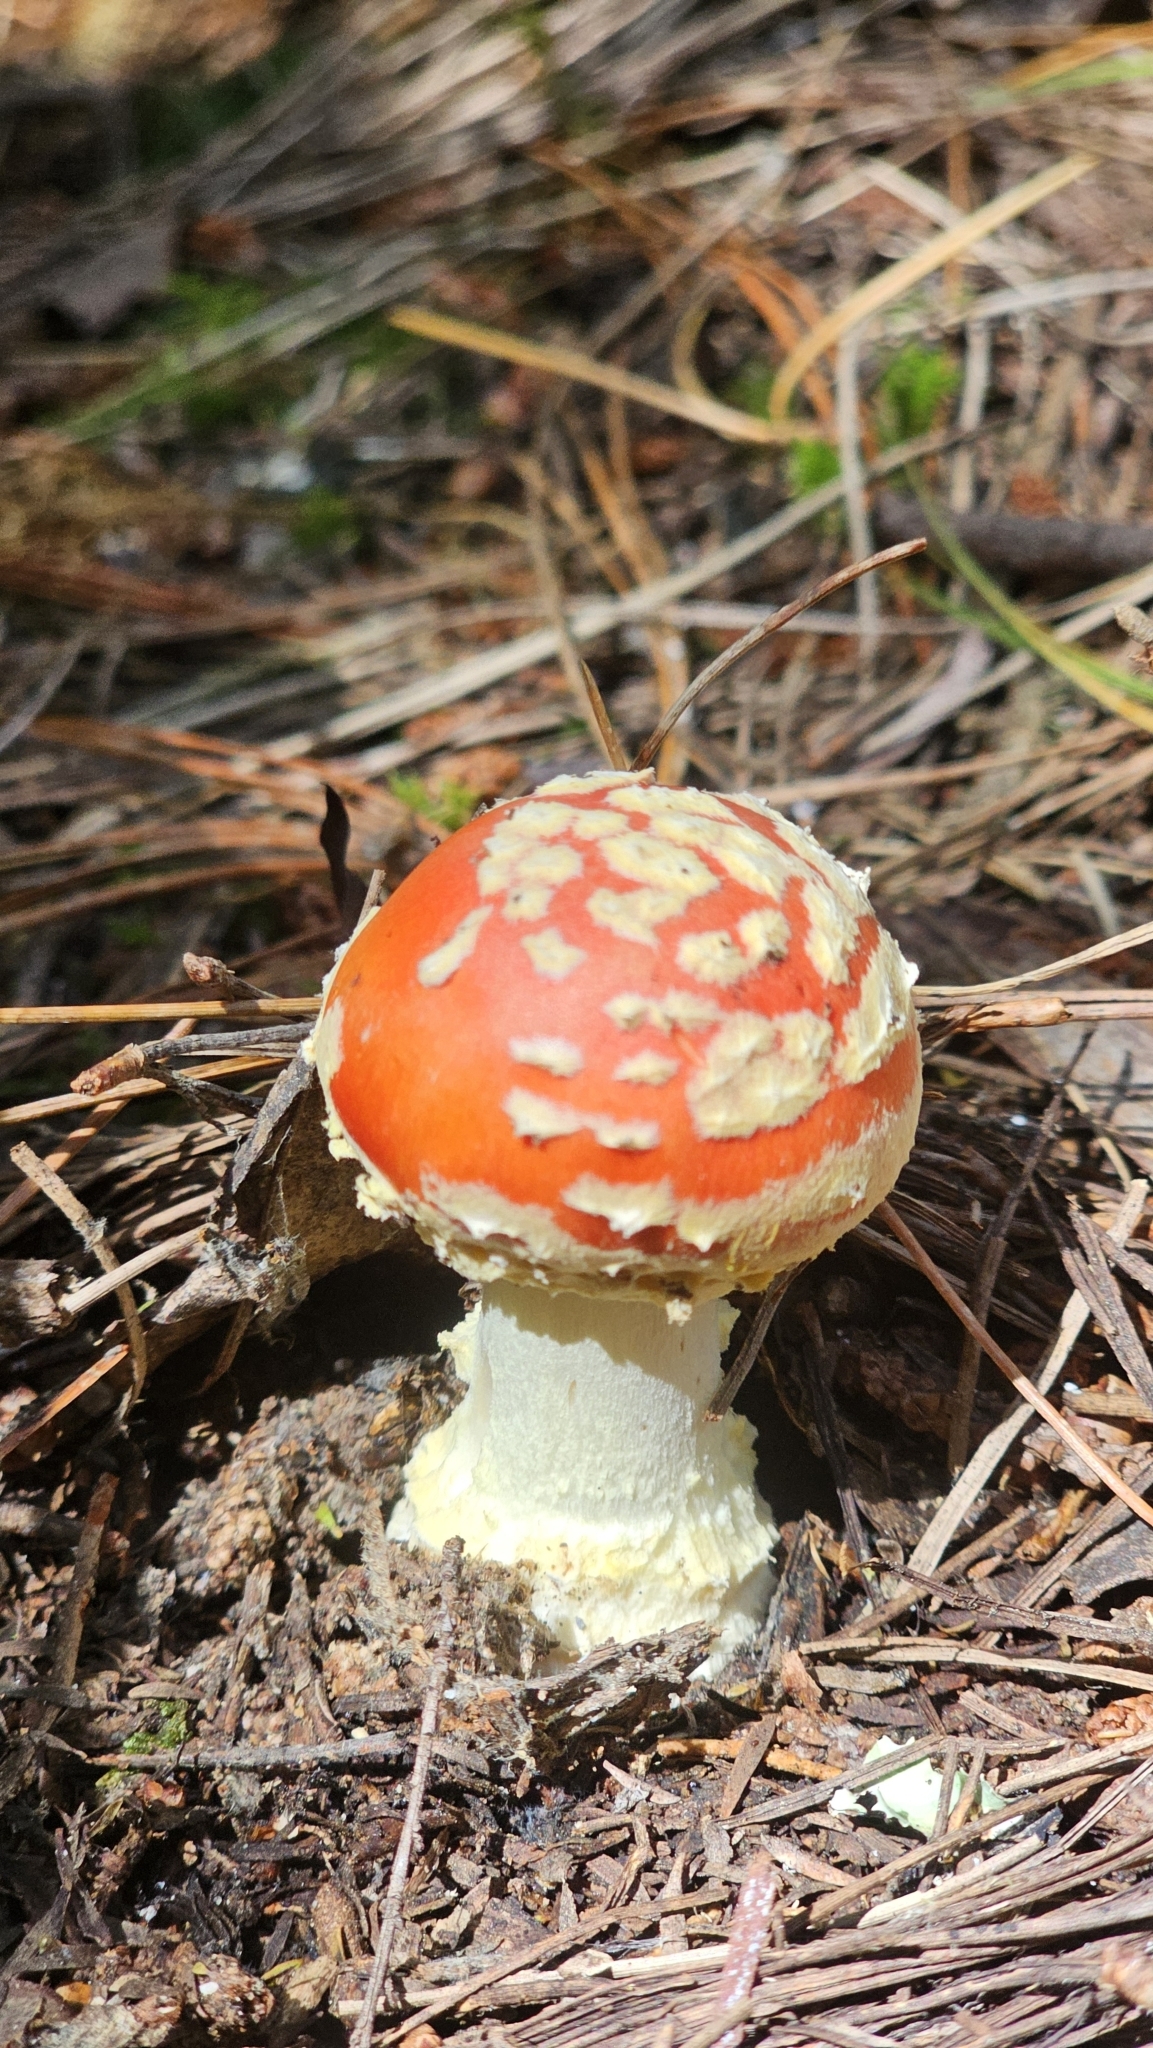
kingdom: Fungi
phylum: Basidiomycota
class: Agaricomycetes
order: Agaricales
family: Amanitaceae
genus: Amanita
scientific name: Amanita muscaria
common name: Fly agaric
